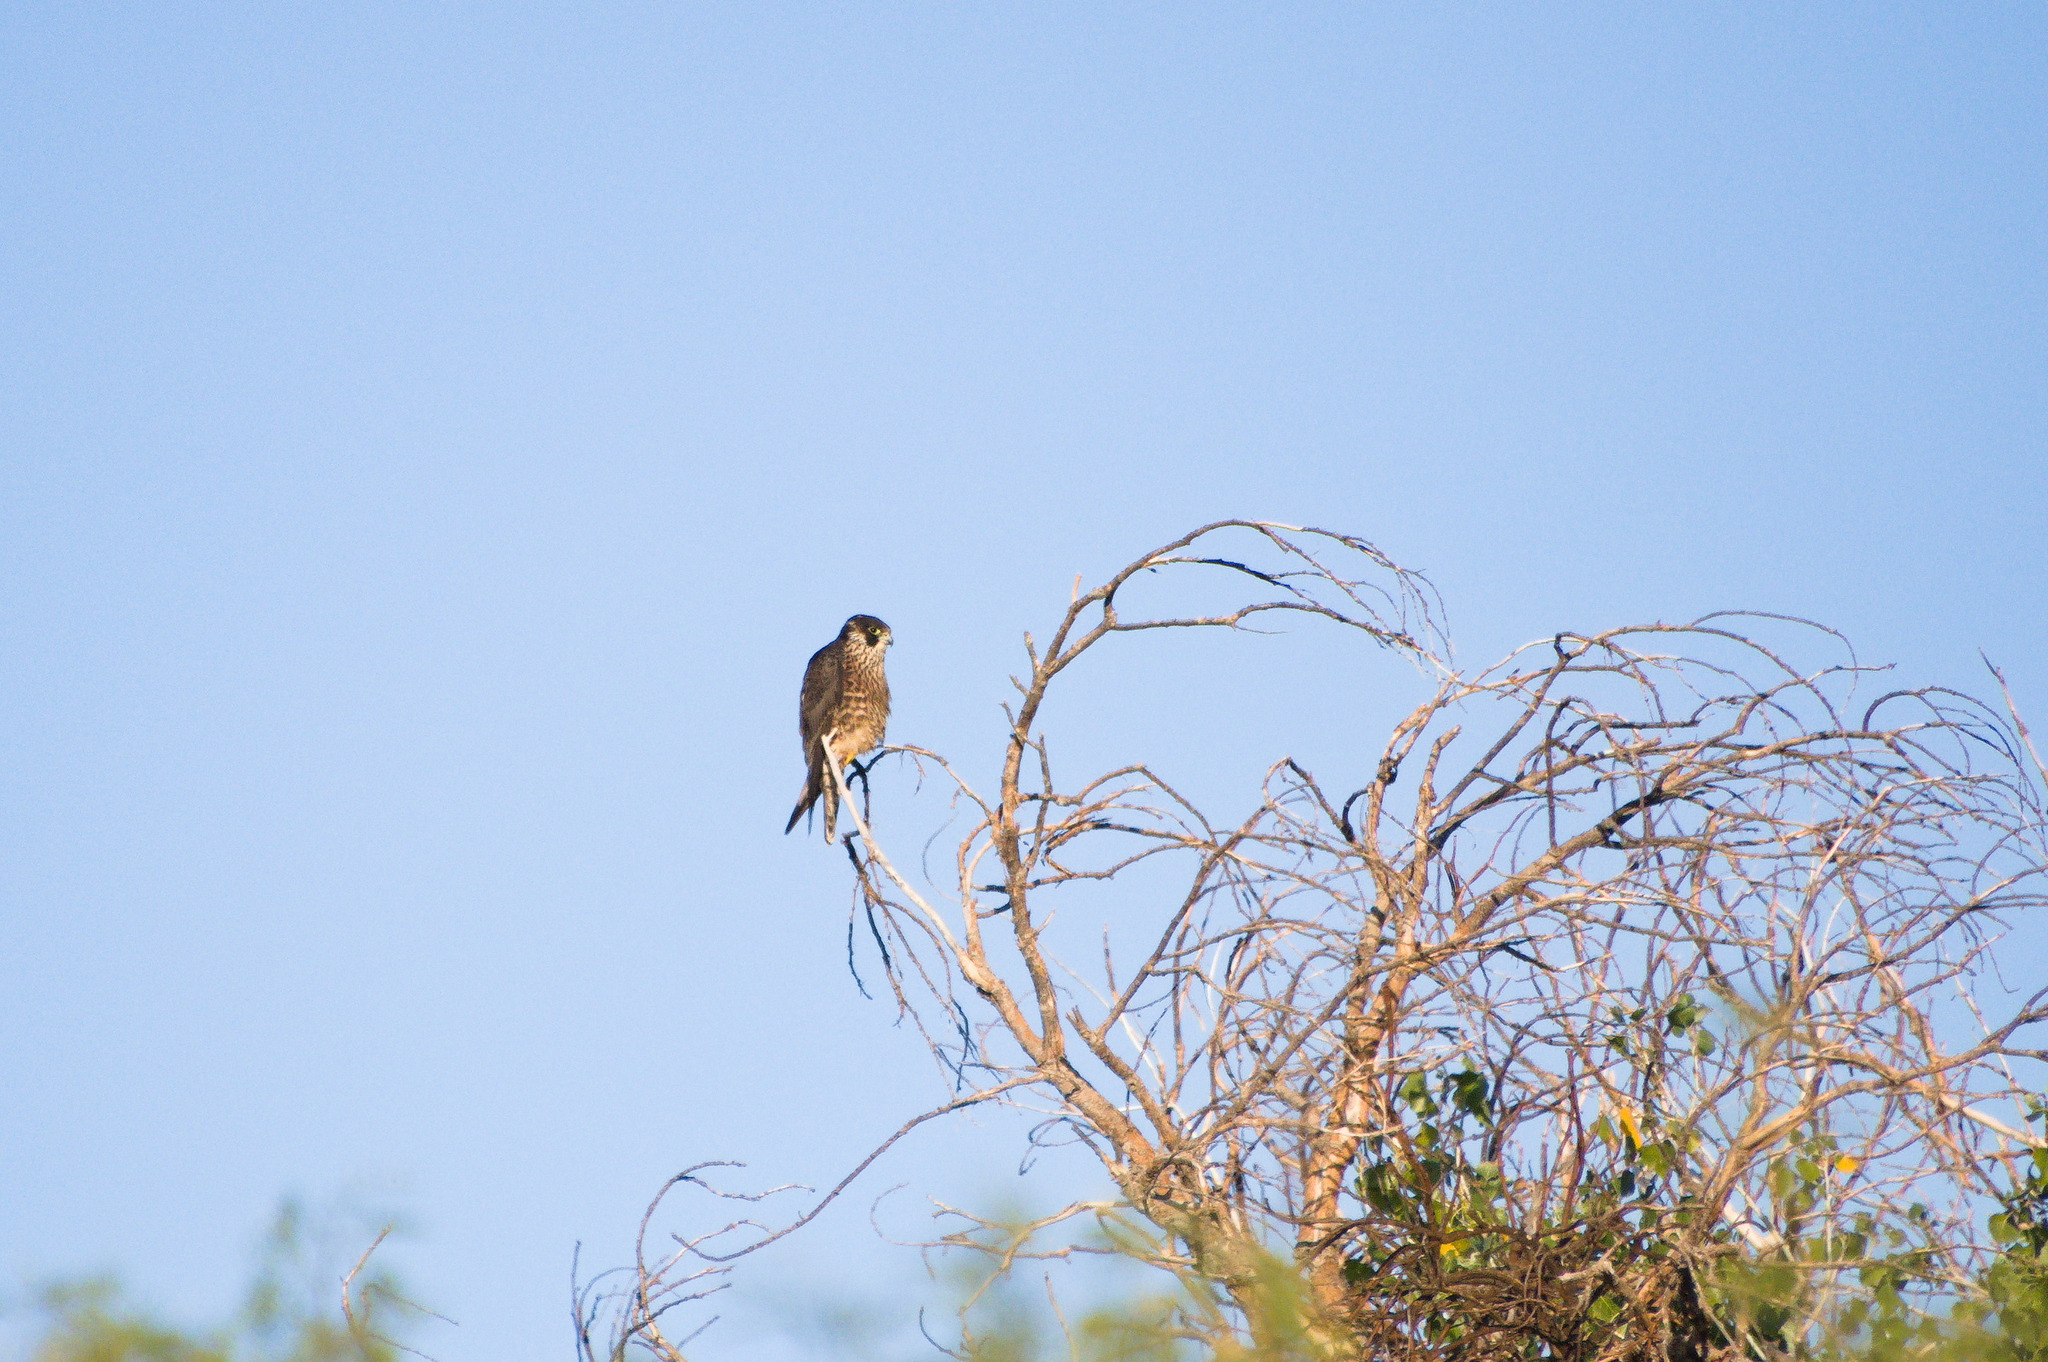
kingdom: Animalia
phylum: Chordata
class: Aves
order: Falconiformes
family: Falconidae
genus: Falco
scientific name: Falco peregrinus
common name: Peregrine falcon
